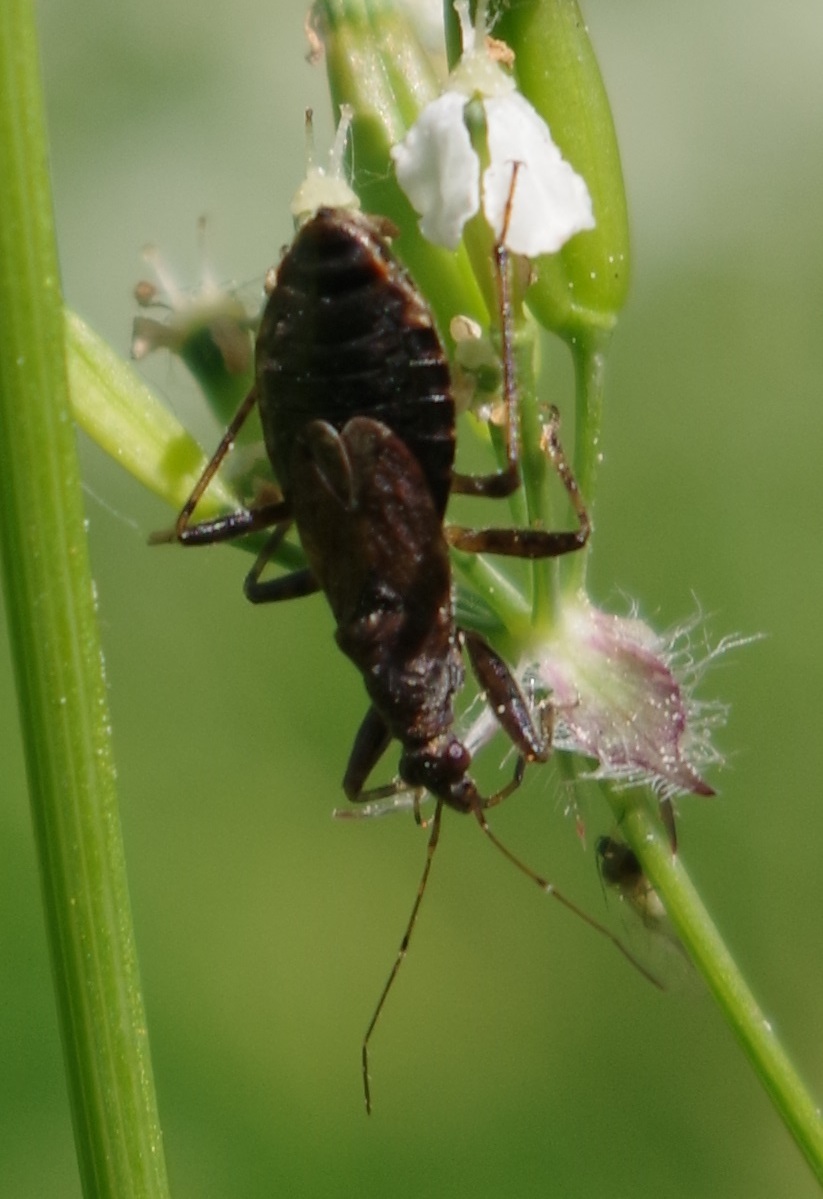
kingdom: Animalia
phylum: Arthropoda
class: Insecta
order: Hemiptera
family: Nabidae
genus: Himacerus
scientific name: Himacerus mirmicoides
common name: Ant damsel bug
